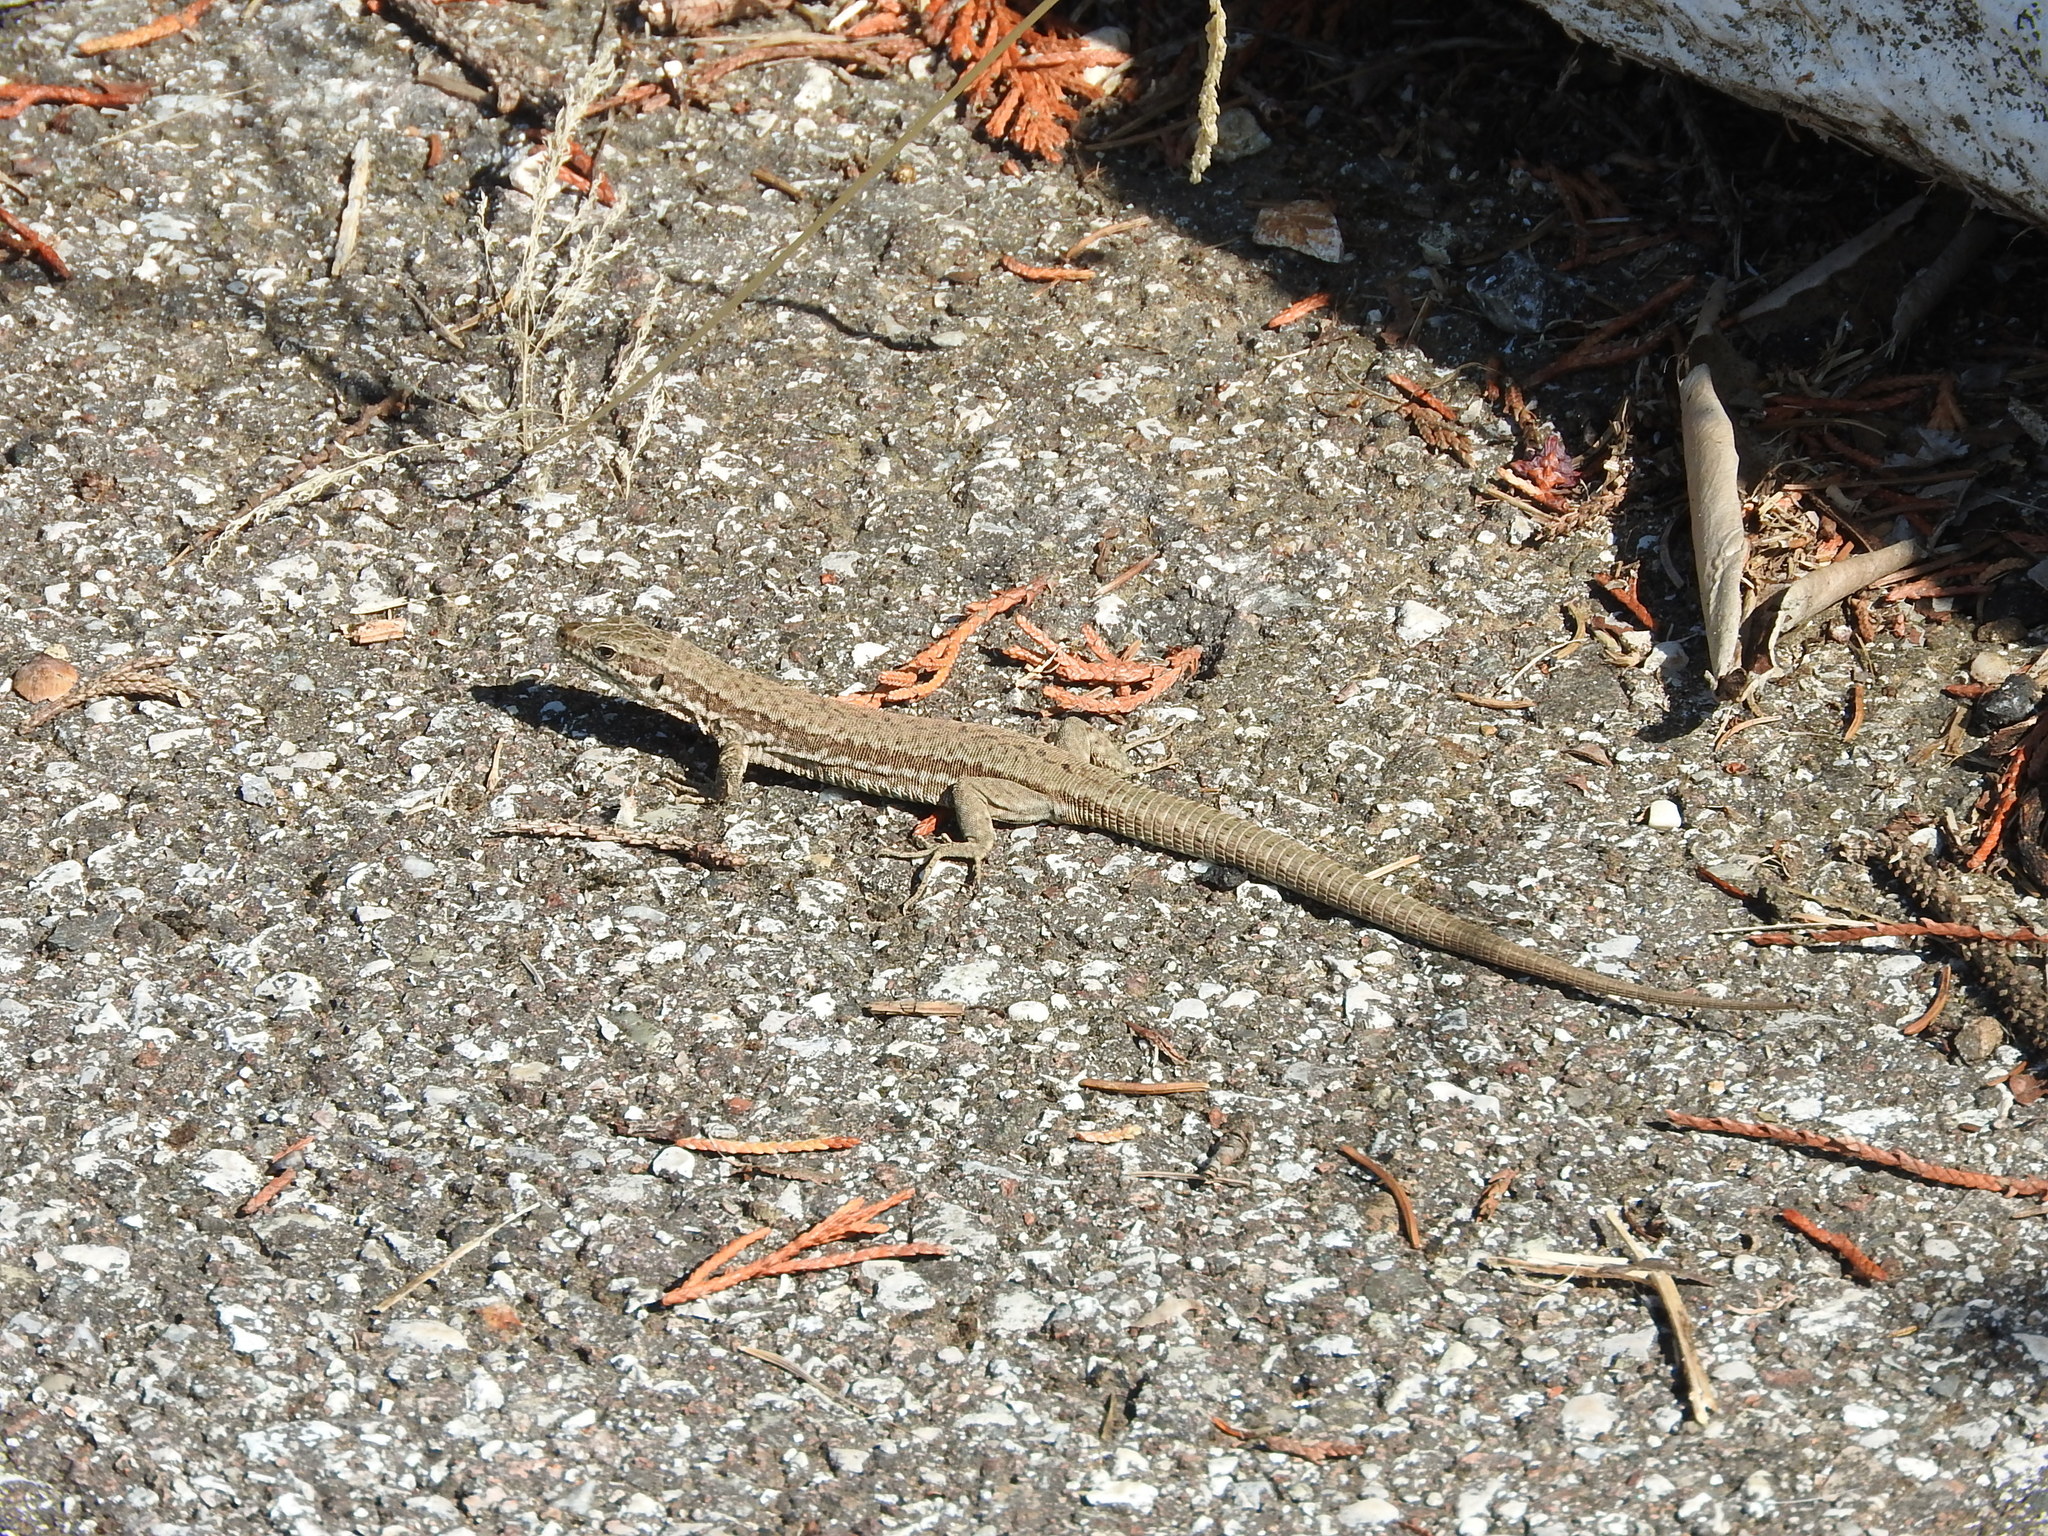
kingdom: Animalia
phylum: Chordata
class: Squamata
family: Lacertidae
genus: Podarcis
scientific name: Podarcis muralis
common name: Common wall lizard
